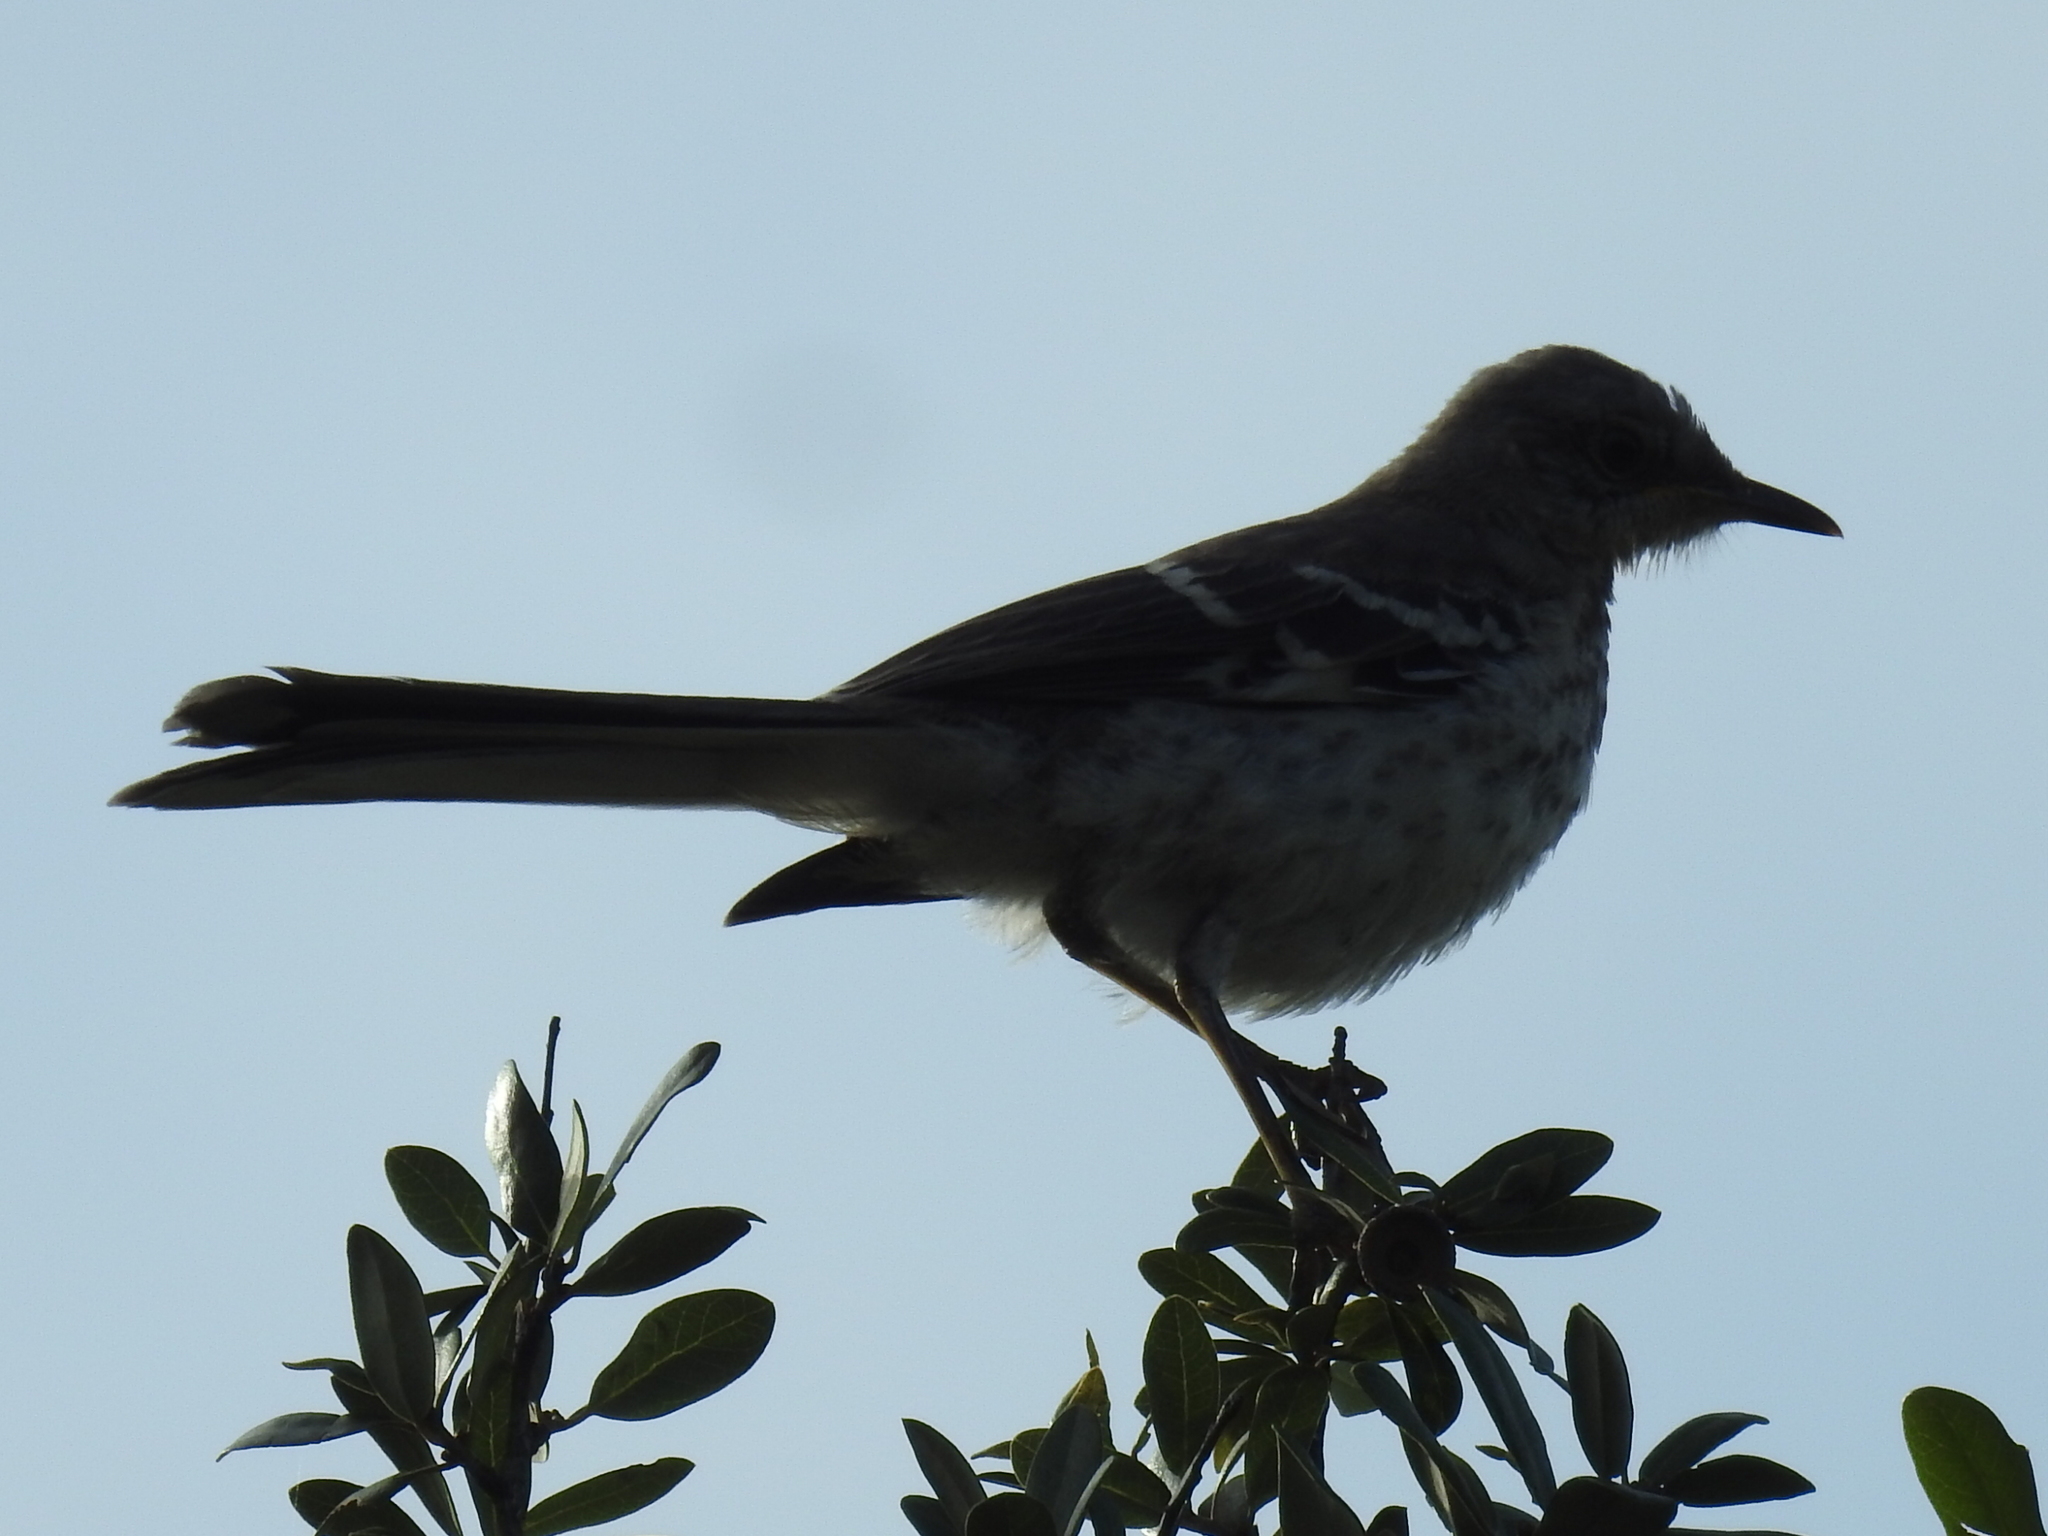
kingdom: Animalia
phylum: Chordata
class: Aves
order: Passeriformes
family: Mimidae
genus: Mimus
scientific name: Mimus polyglottos
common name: Northern mockingbird
